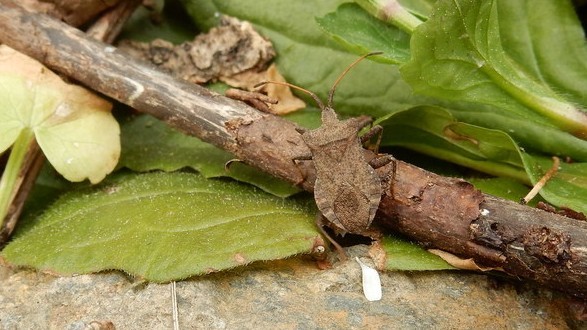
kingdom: Animalia
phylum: Arthropoda
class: Insecta
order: Hemiptera
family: Coreidae
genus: Coreus
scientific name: Coreus marginatus
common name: Dock bug
